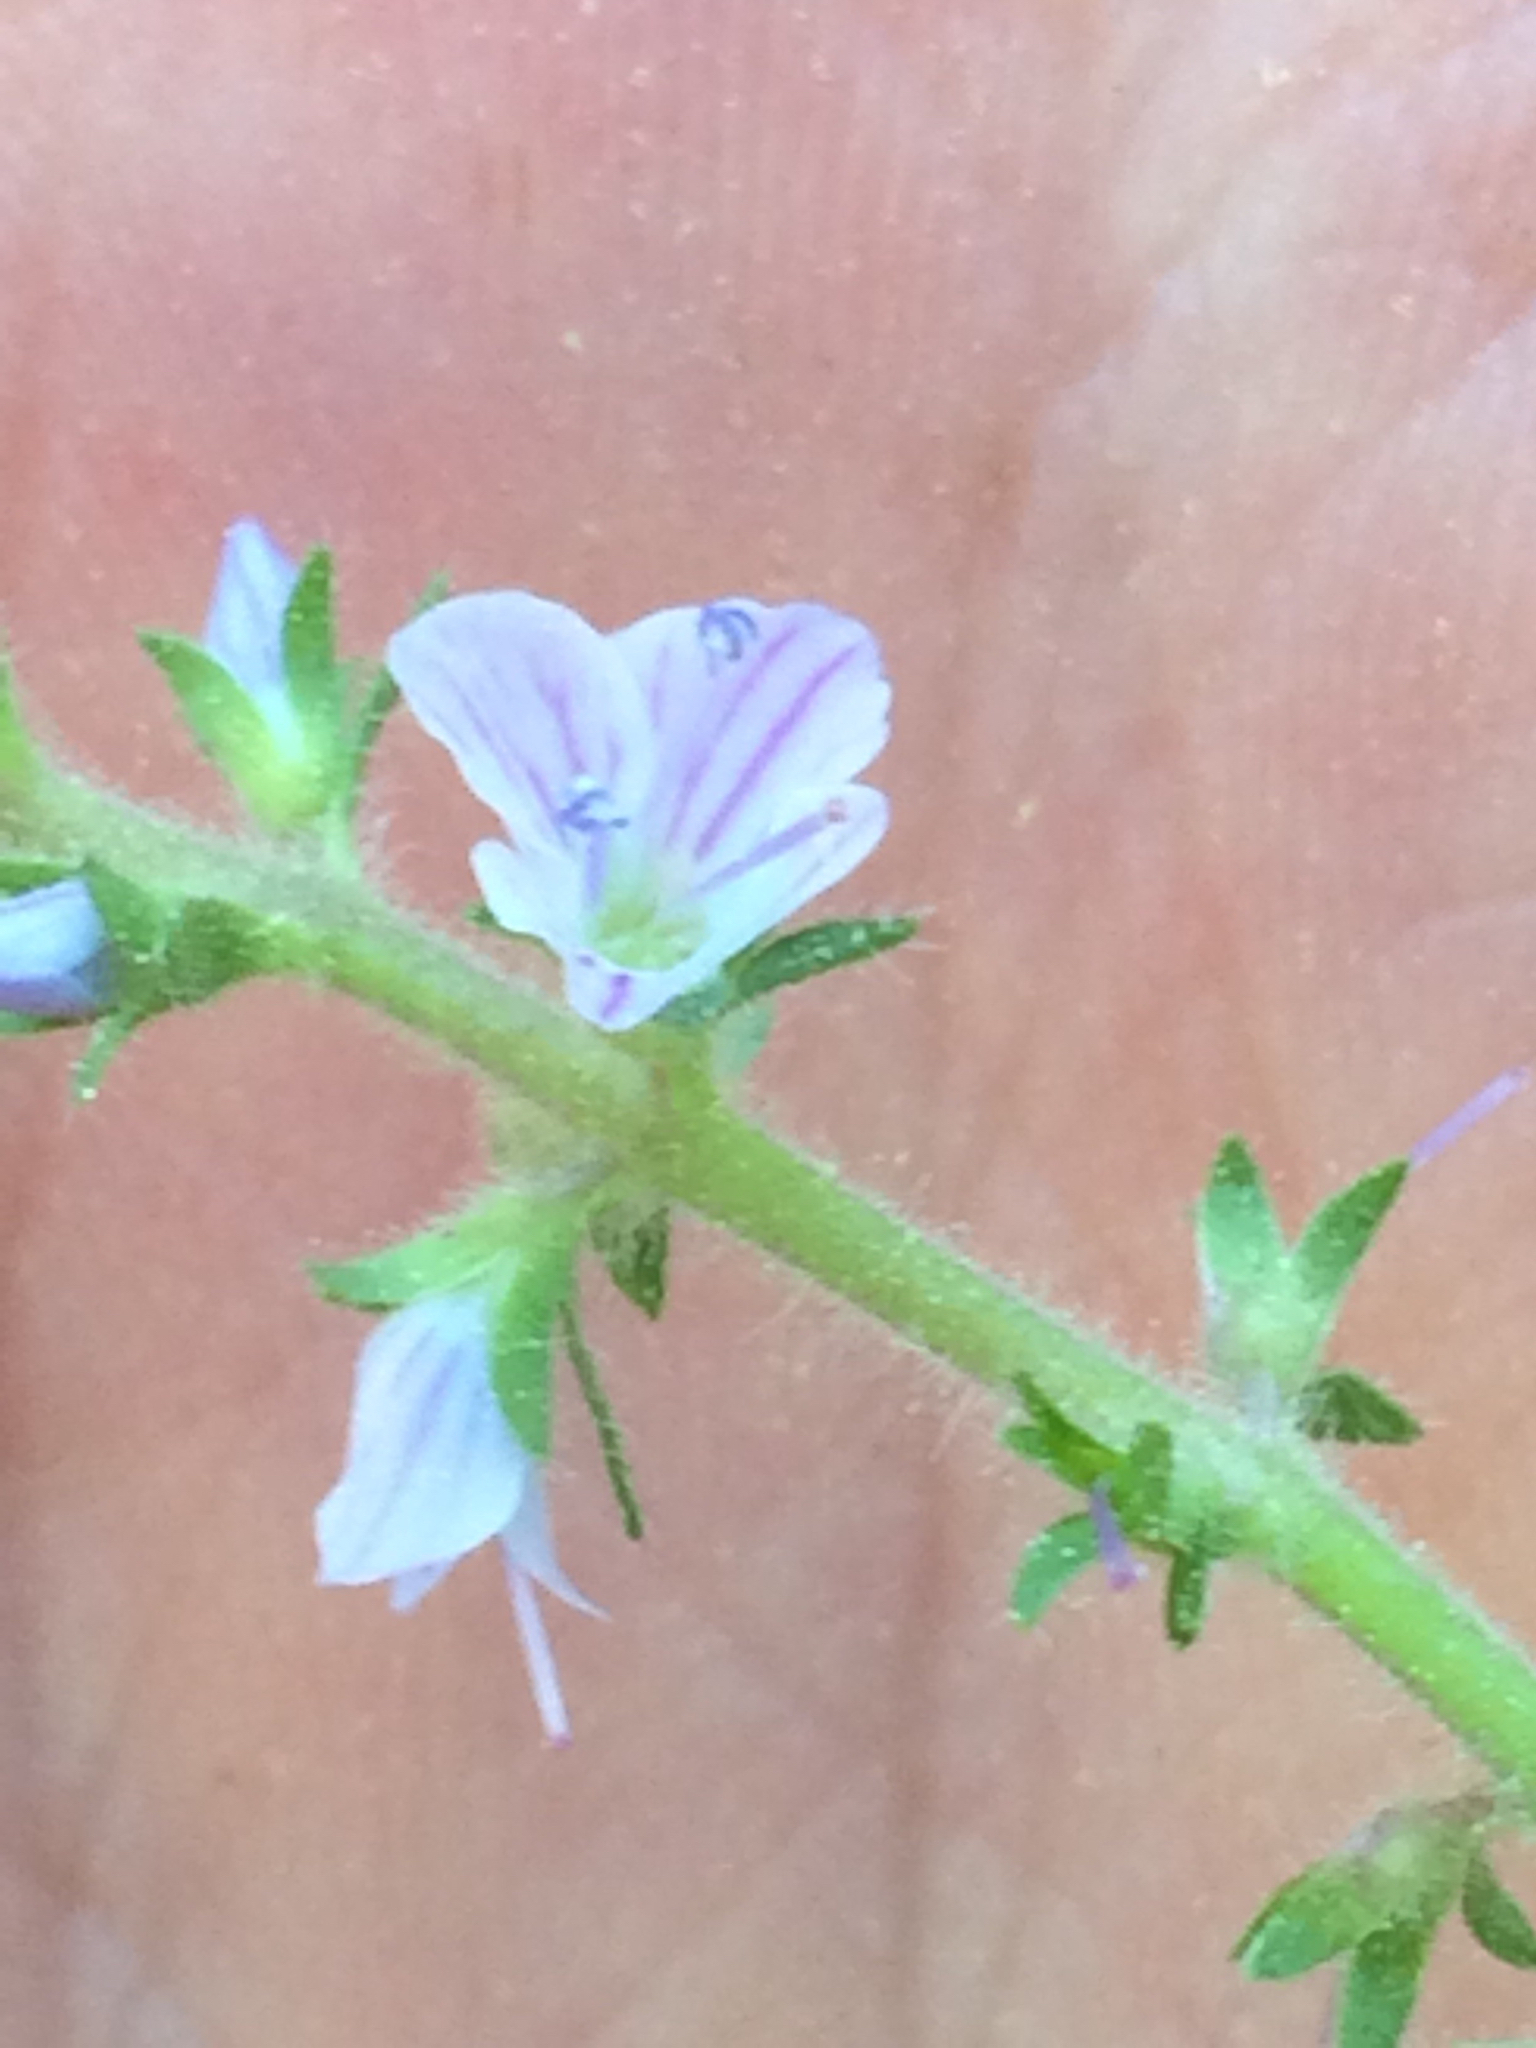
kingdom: Plantae
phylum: Tracheophyta
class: Magnoliopsida
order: Lamiales
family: Plantaginaceae
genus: Veronica
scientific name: Veronica officinalis
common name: Common speedwell
